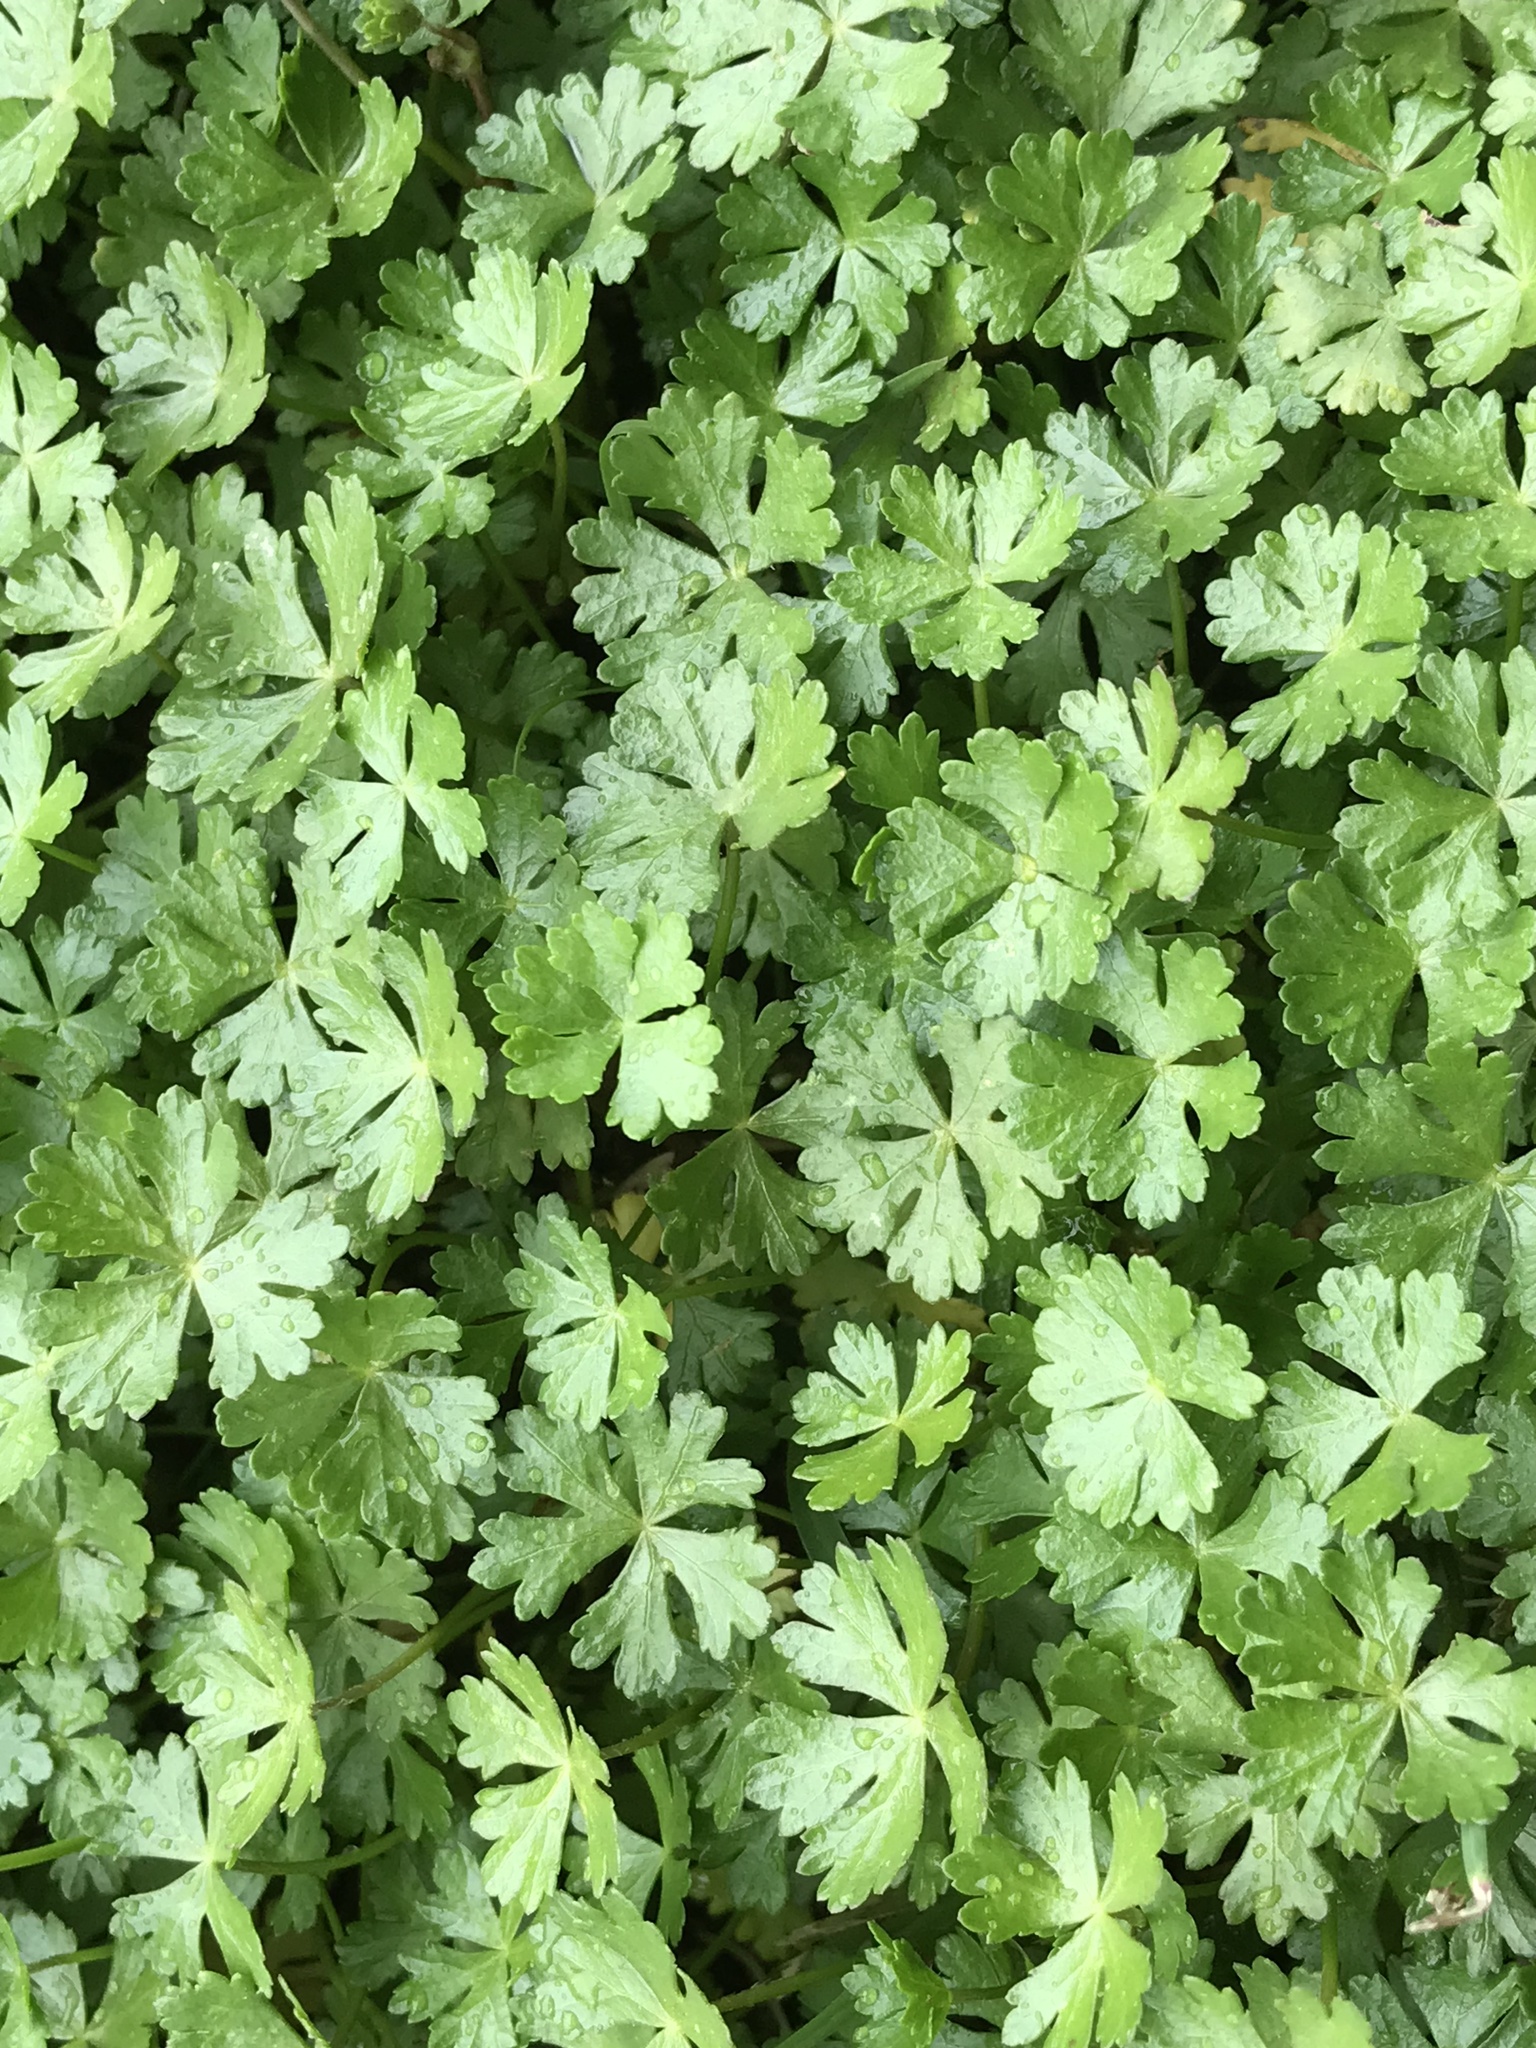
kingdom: Plantae
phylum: Tracheophyta
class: Magnoliopsida
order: Apiales
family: Araliaceae
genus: Hydrocotyle
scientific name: Hydrocotyle batrachium
